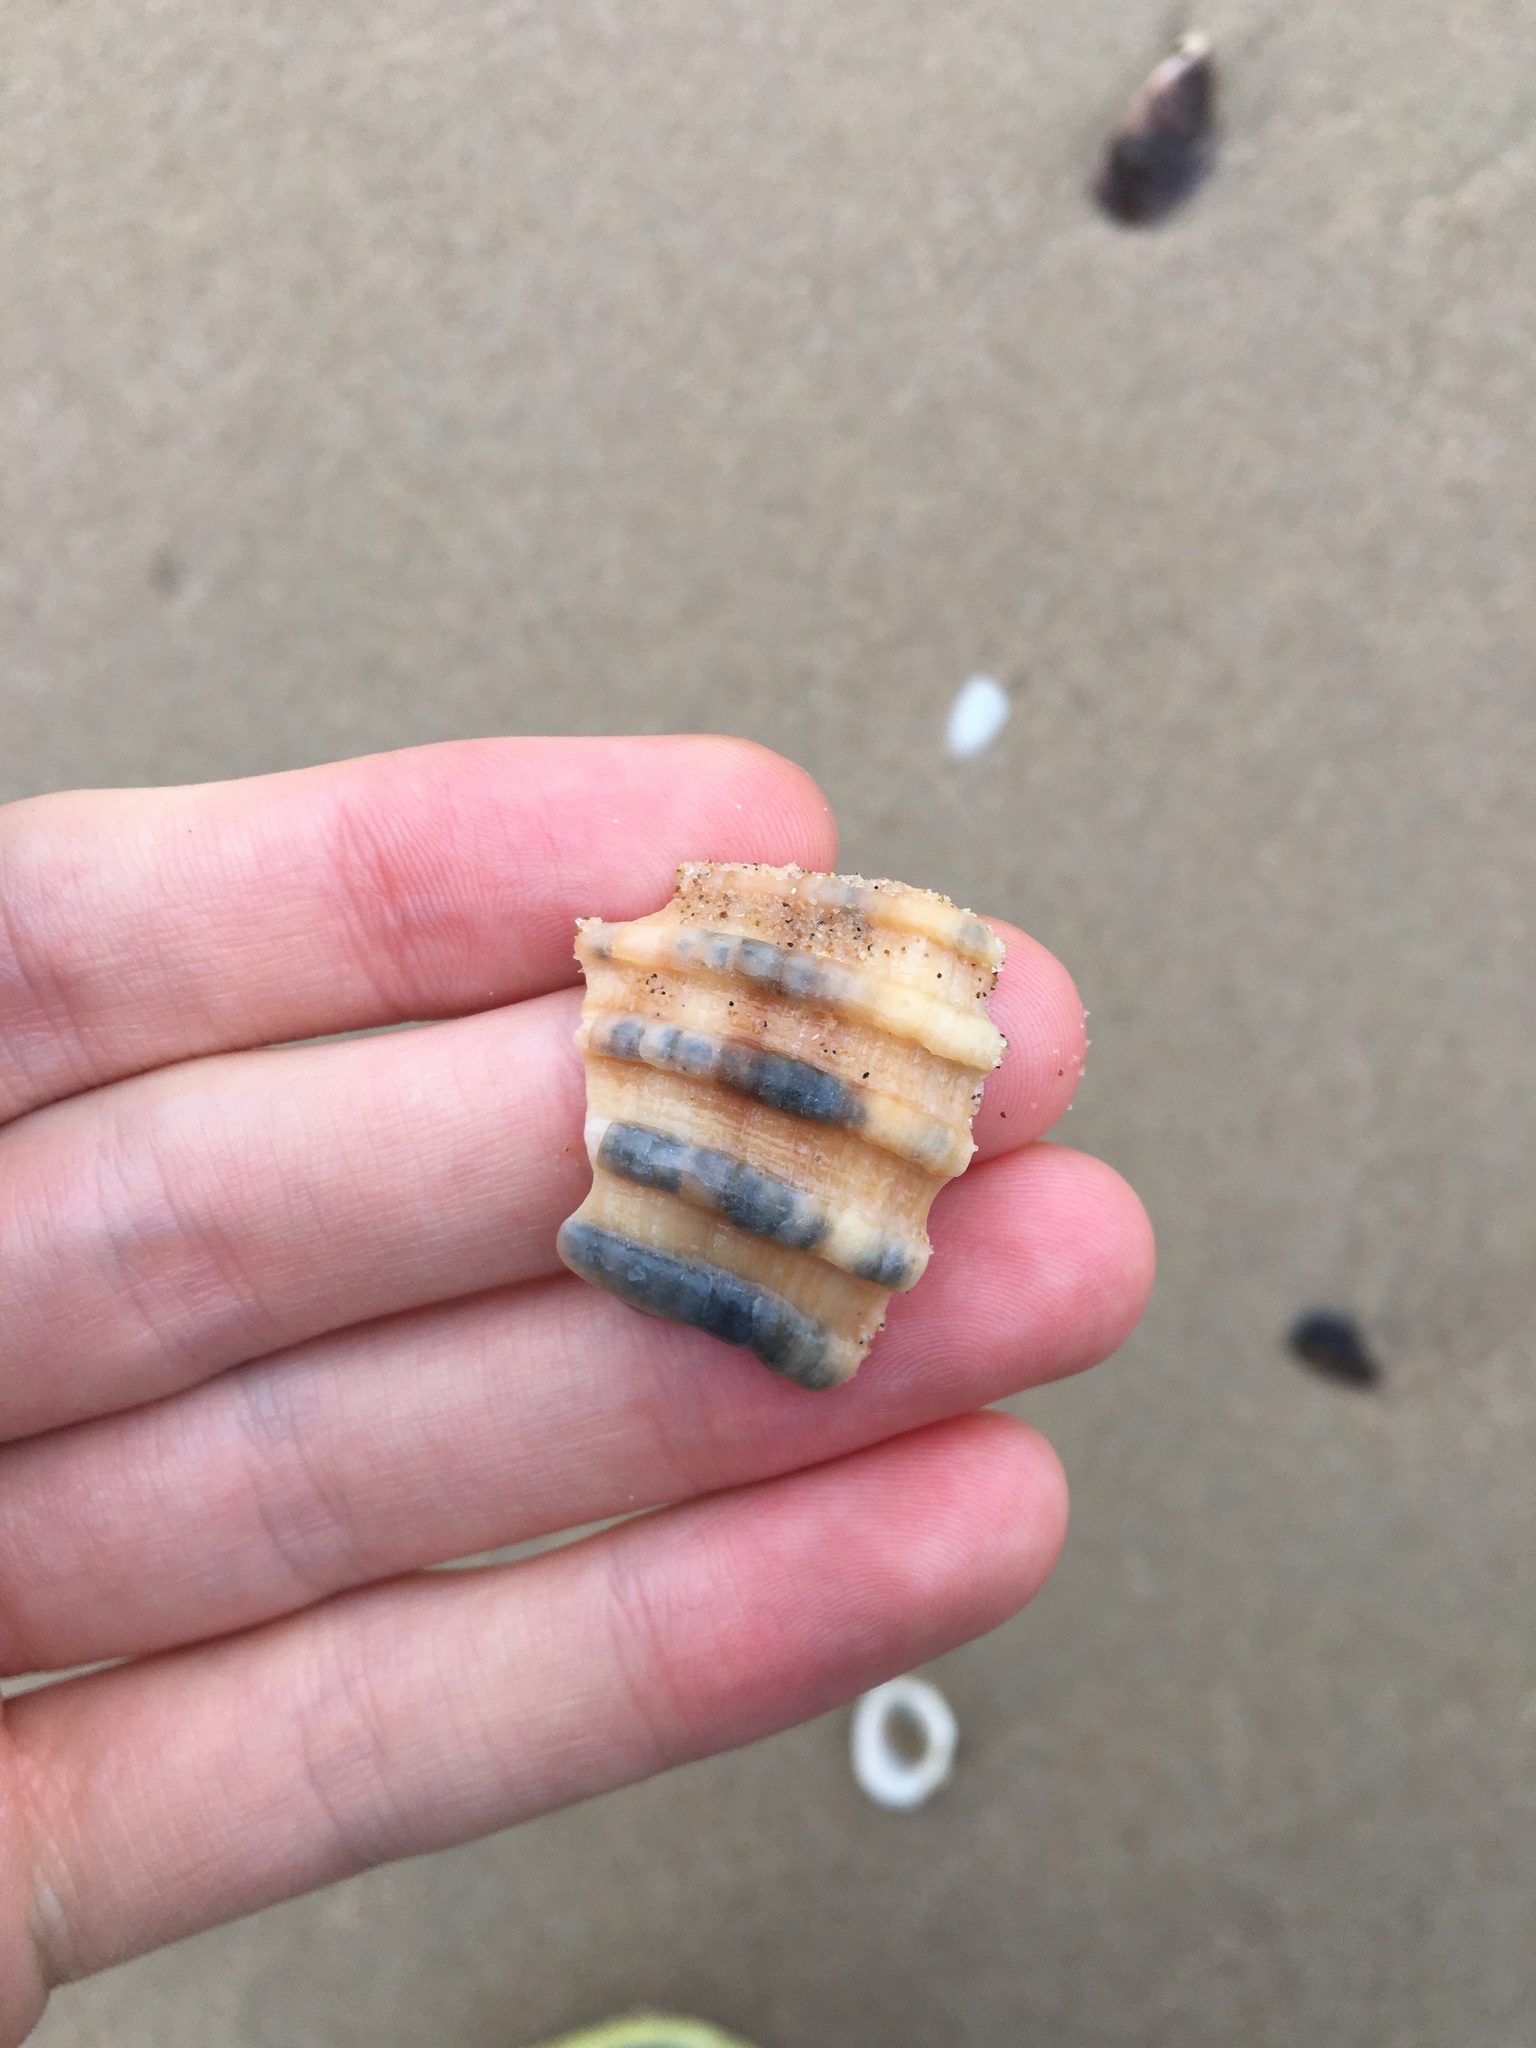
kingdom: Animalia
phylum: Mollusca
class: Gastropoda
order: Neogastropoda
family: Muricidae
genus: Dicathais
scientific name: Dicathais orbita
